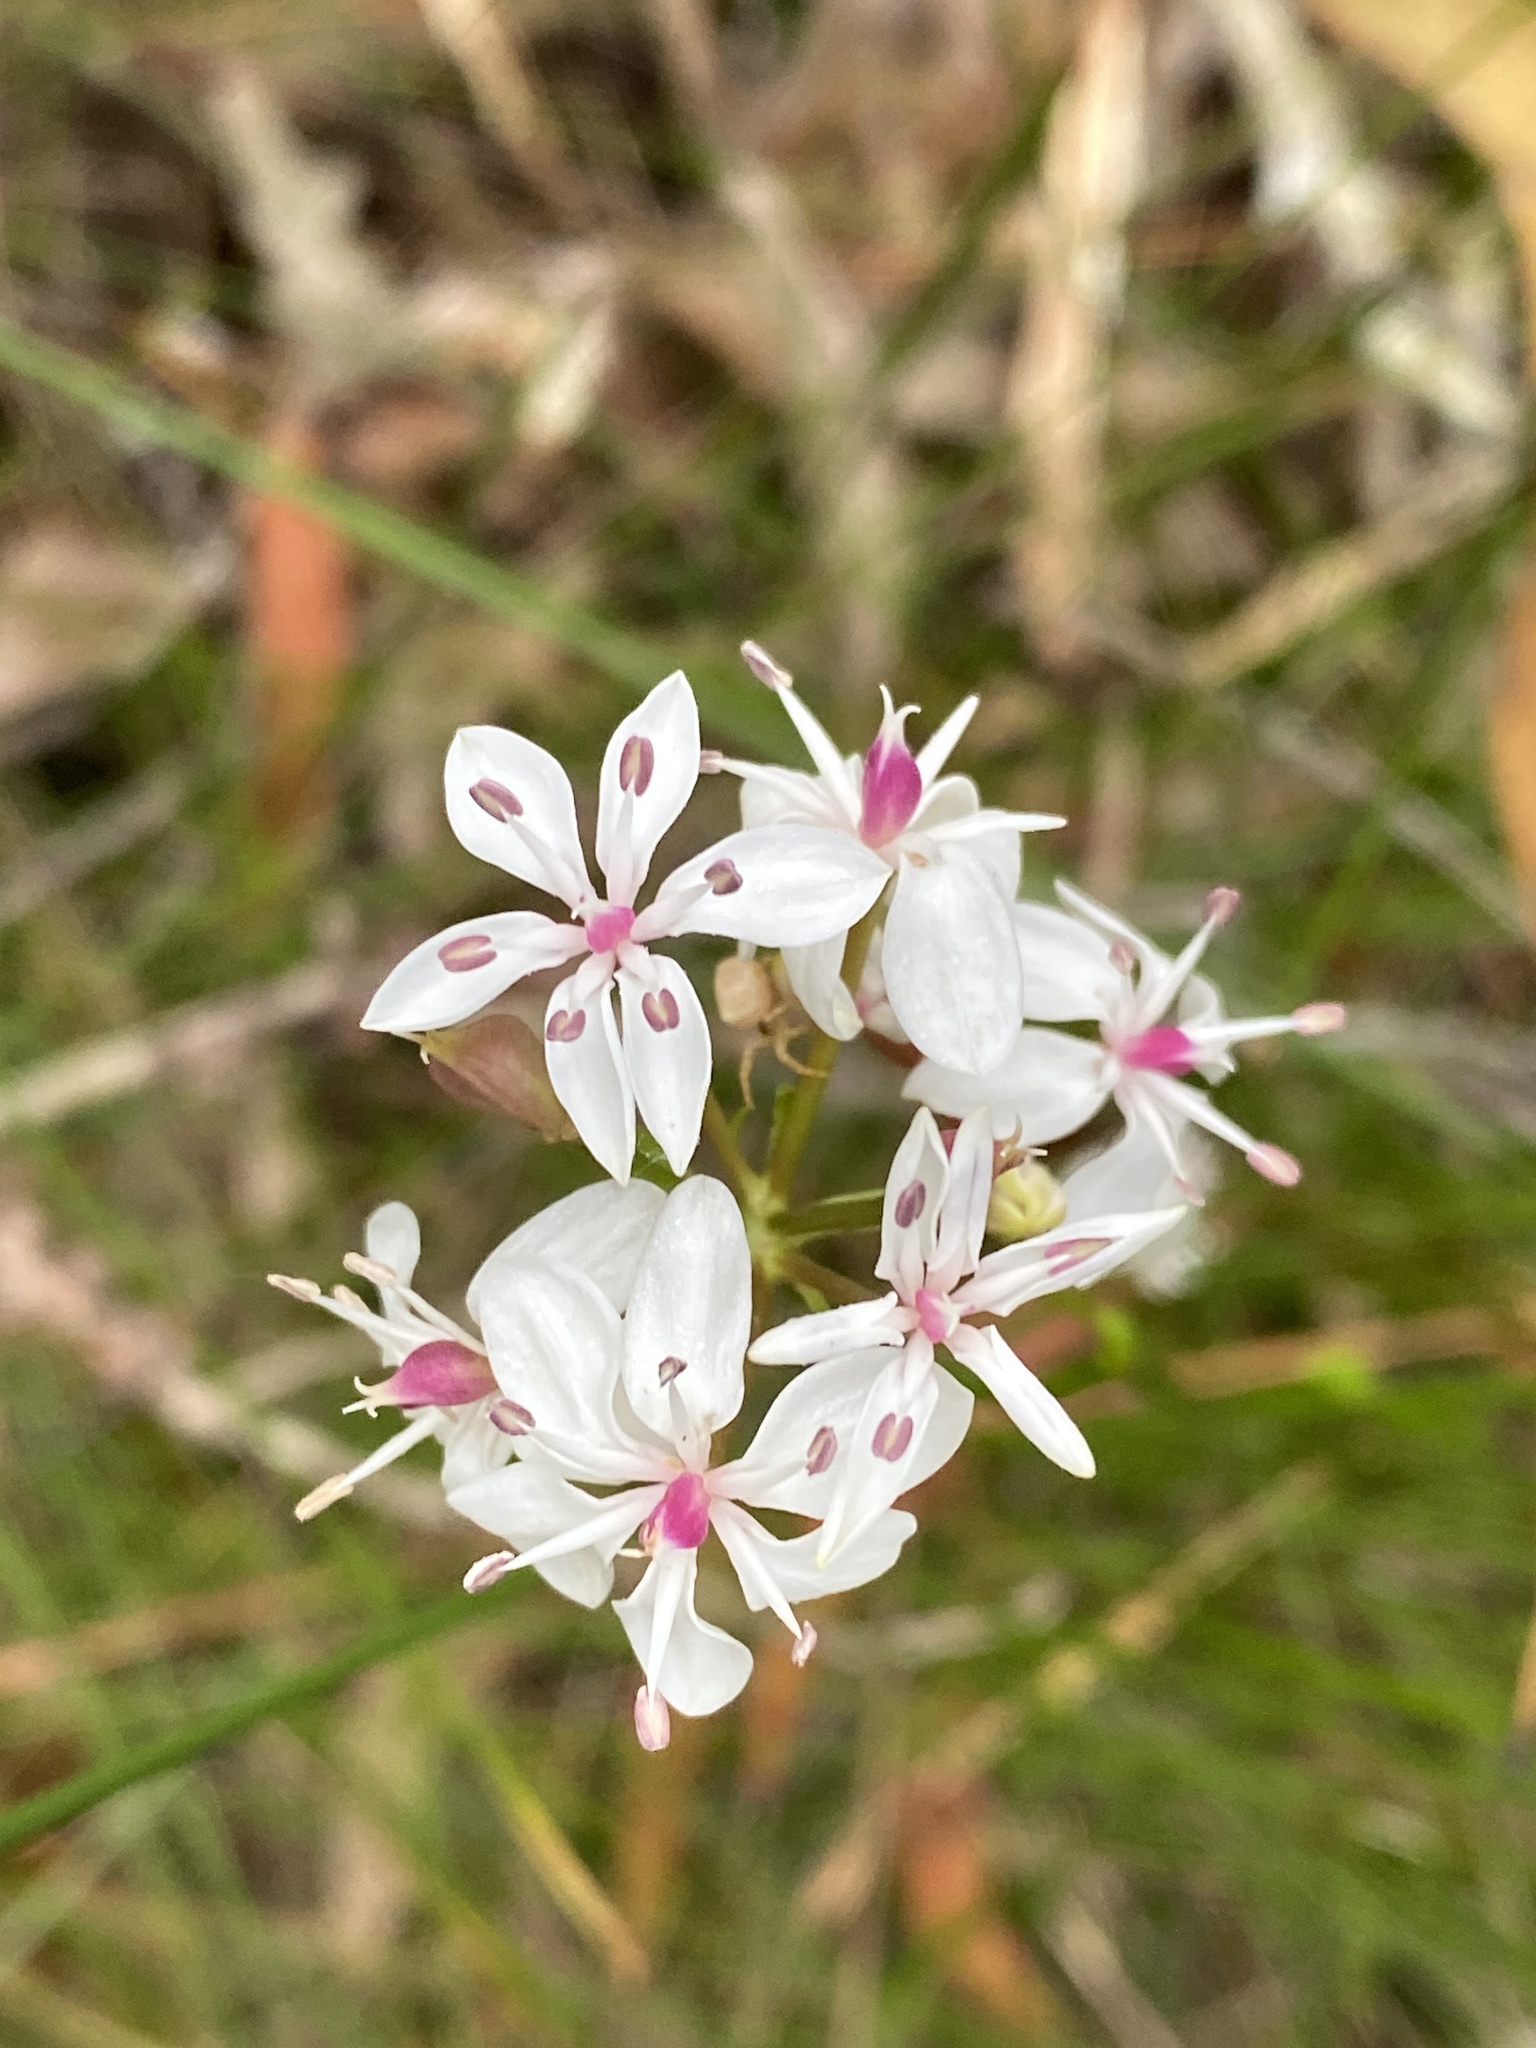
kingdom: Plantae
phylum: Tracheophyta
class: Liliopsida
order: Liliales
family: Colchicaceae
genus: Burchardia
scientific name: Burchardia umbellata
